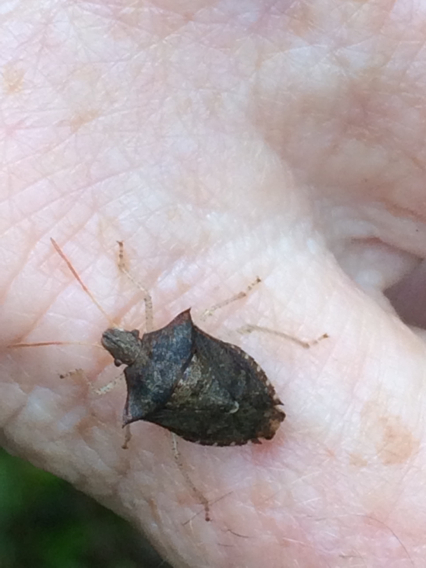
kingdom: Animalia
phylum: Arthropoda
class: Insecta
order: Hemiptera
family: Pentatomidae
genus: Euschistus
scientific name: Euschistus tristigmus
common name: Dusky stink bug
